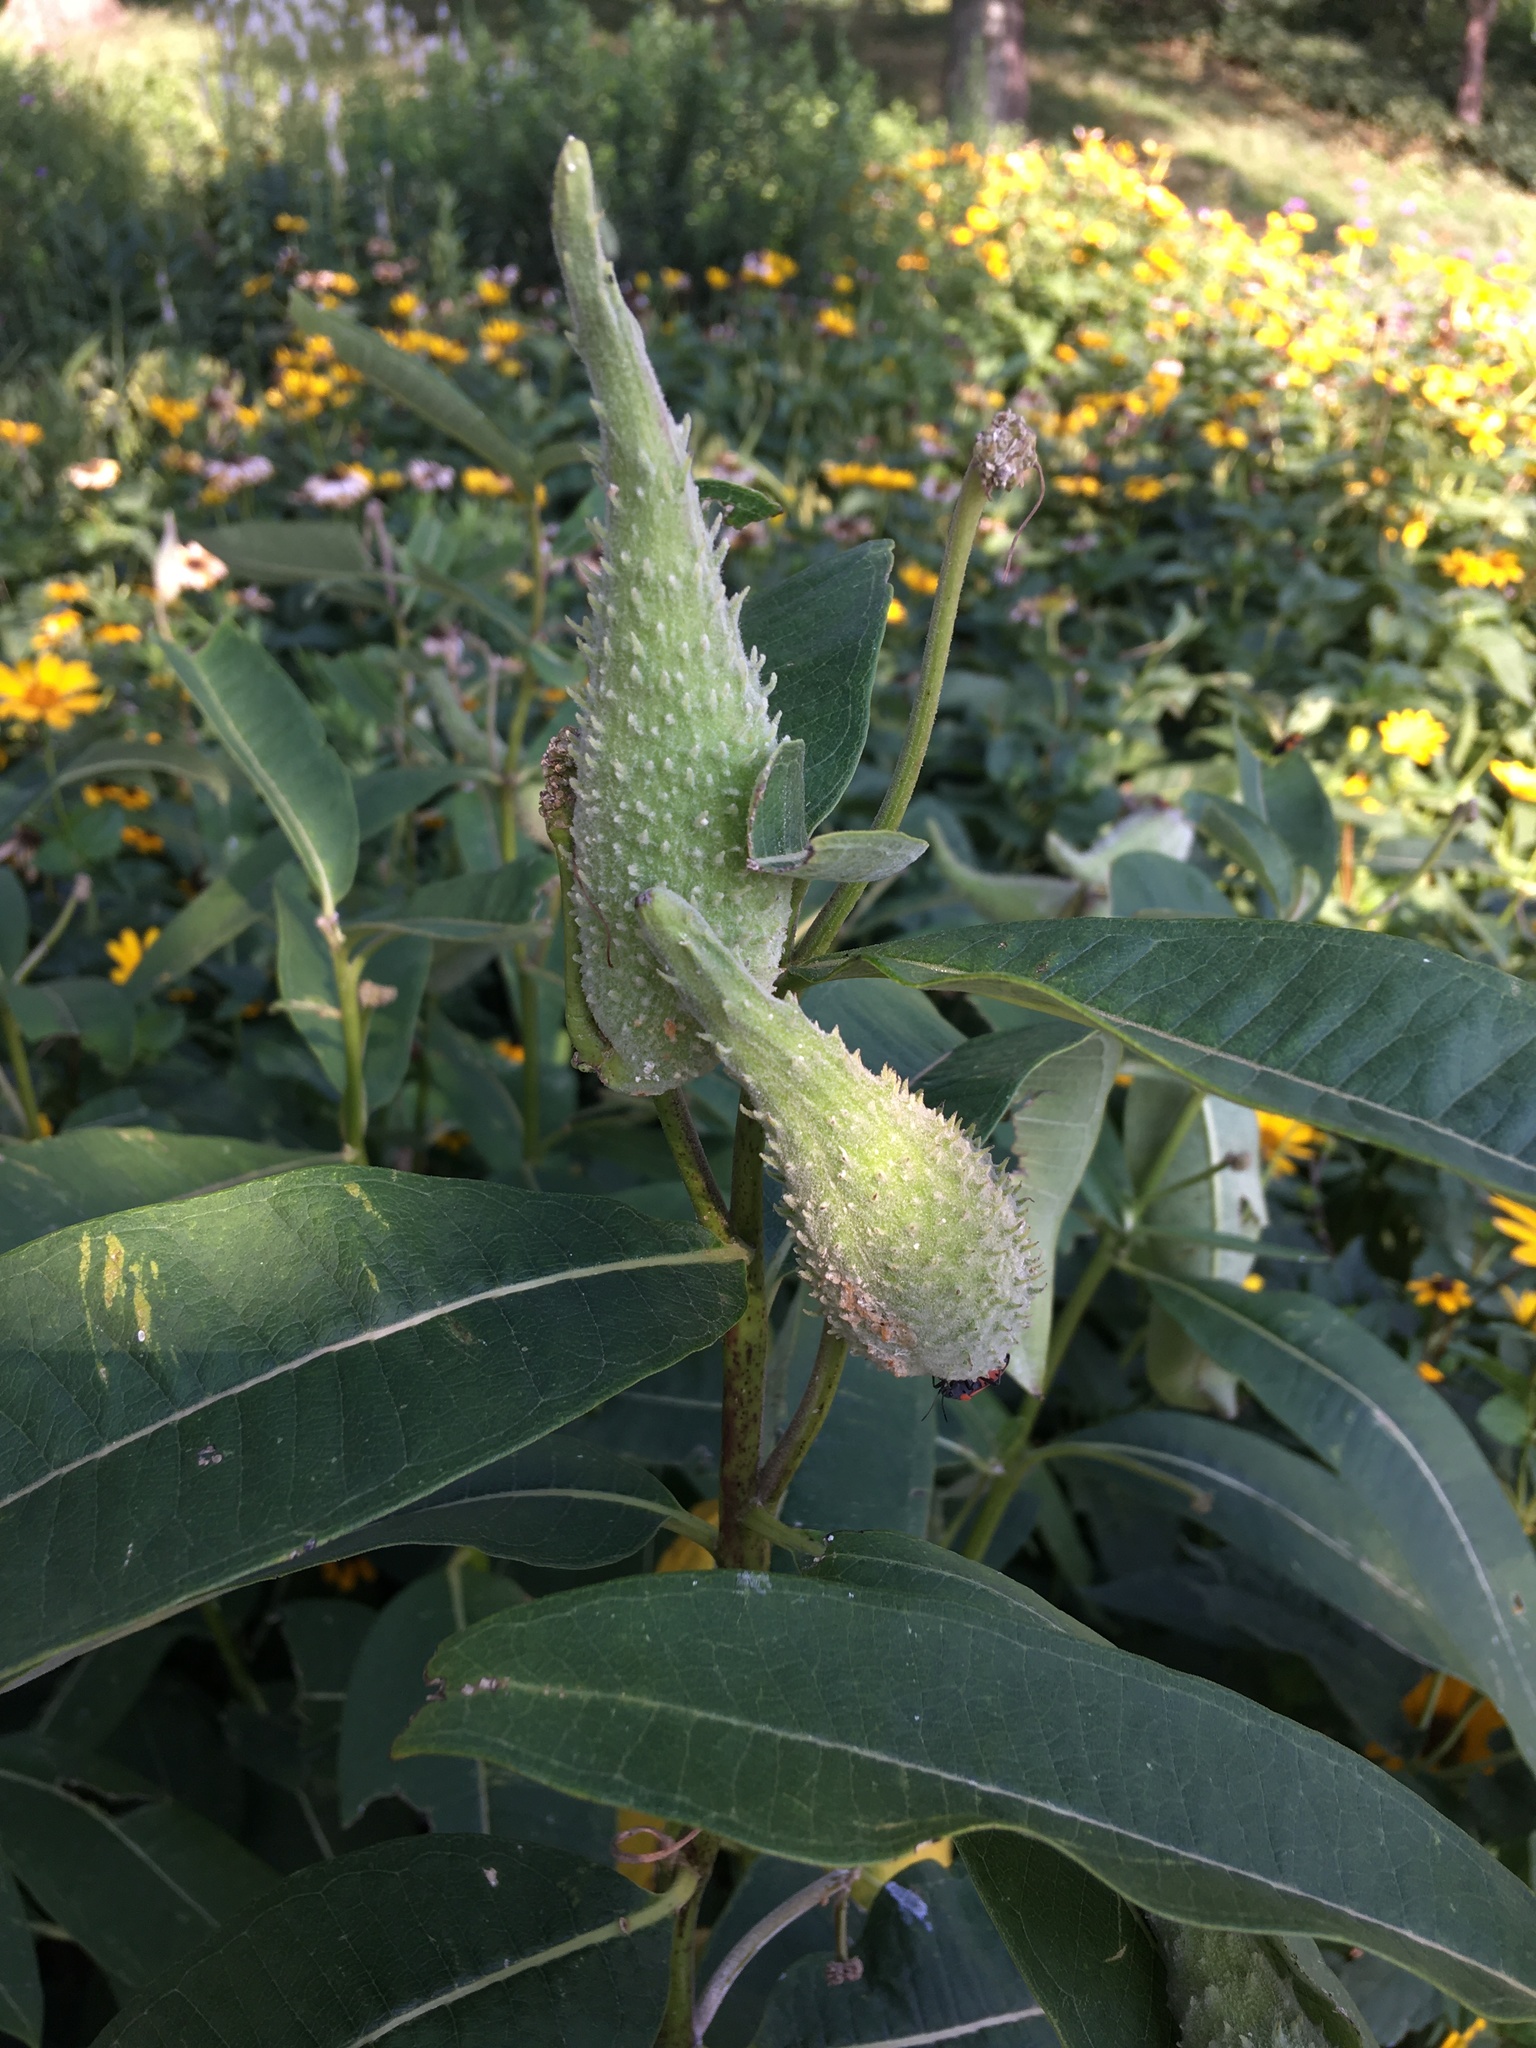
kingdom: Plantae
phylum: Tracheophyta
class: Magnoliopsida
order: Gentianales
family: Apocynaceae
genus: Asclepias
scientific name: Asclepias syriaca
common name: Common milkweed
